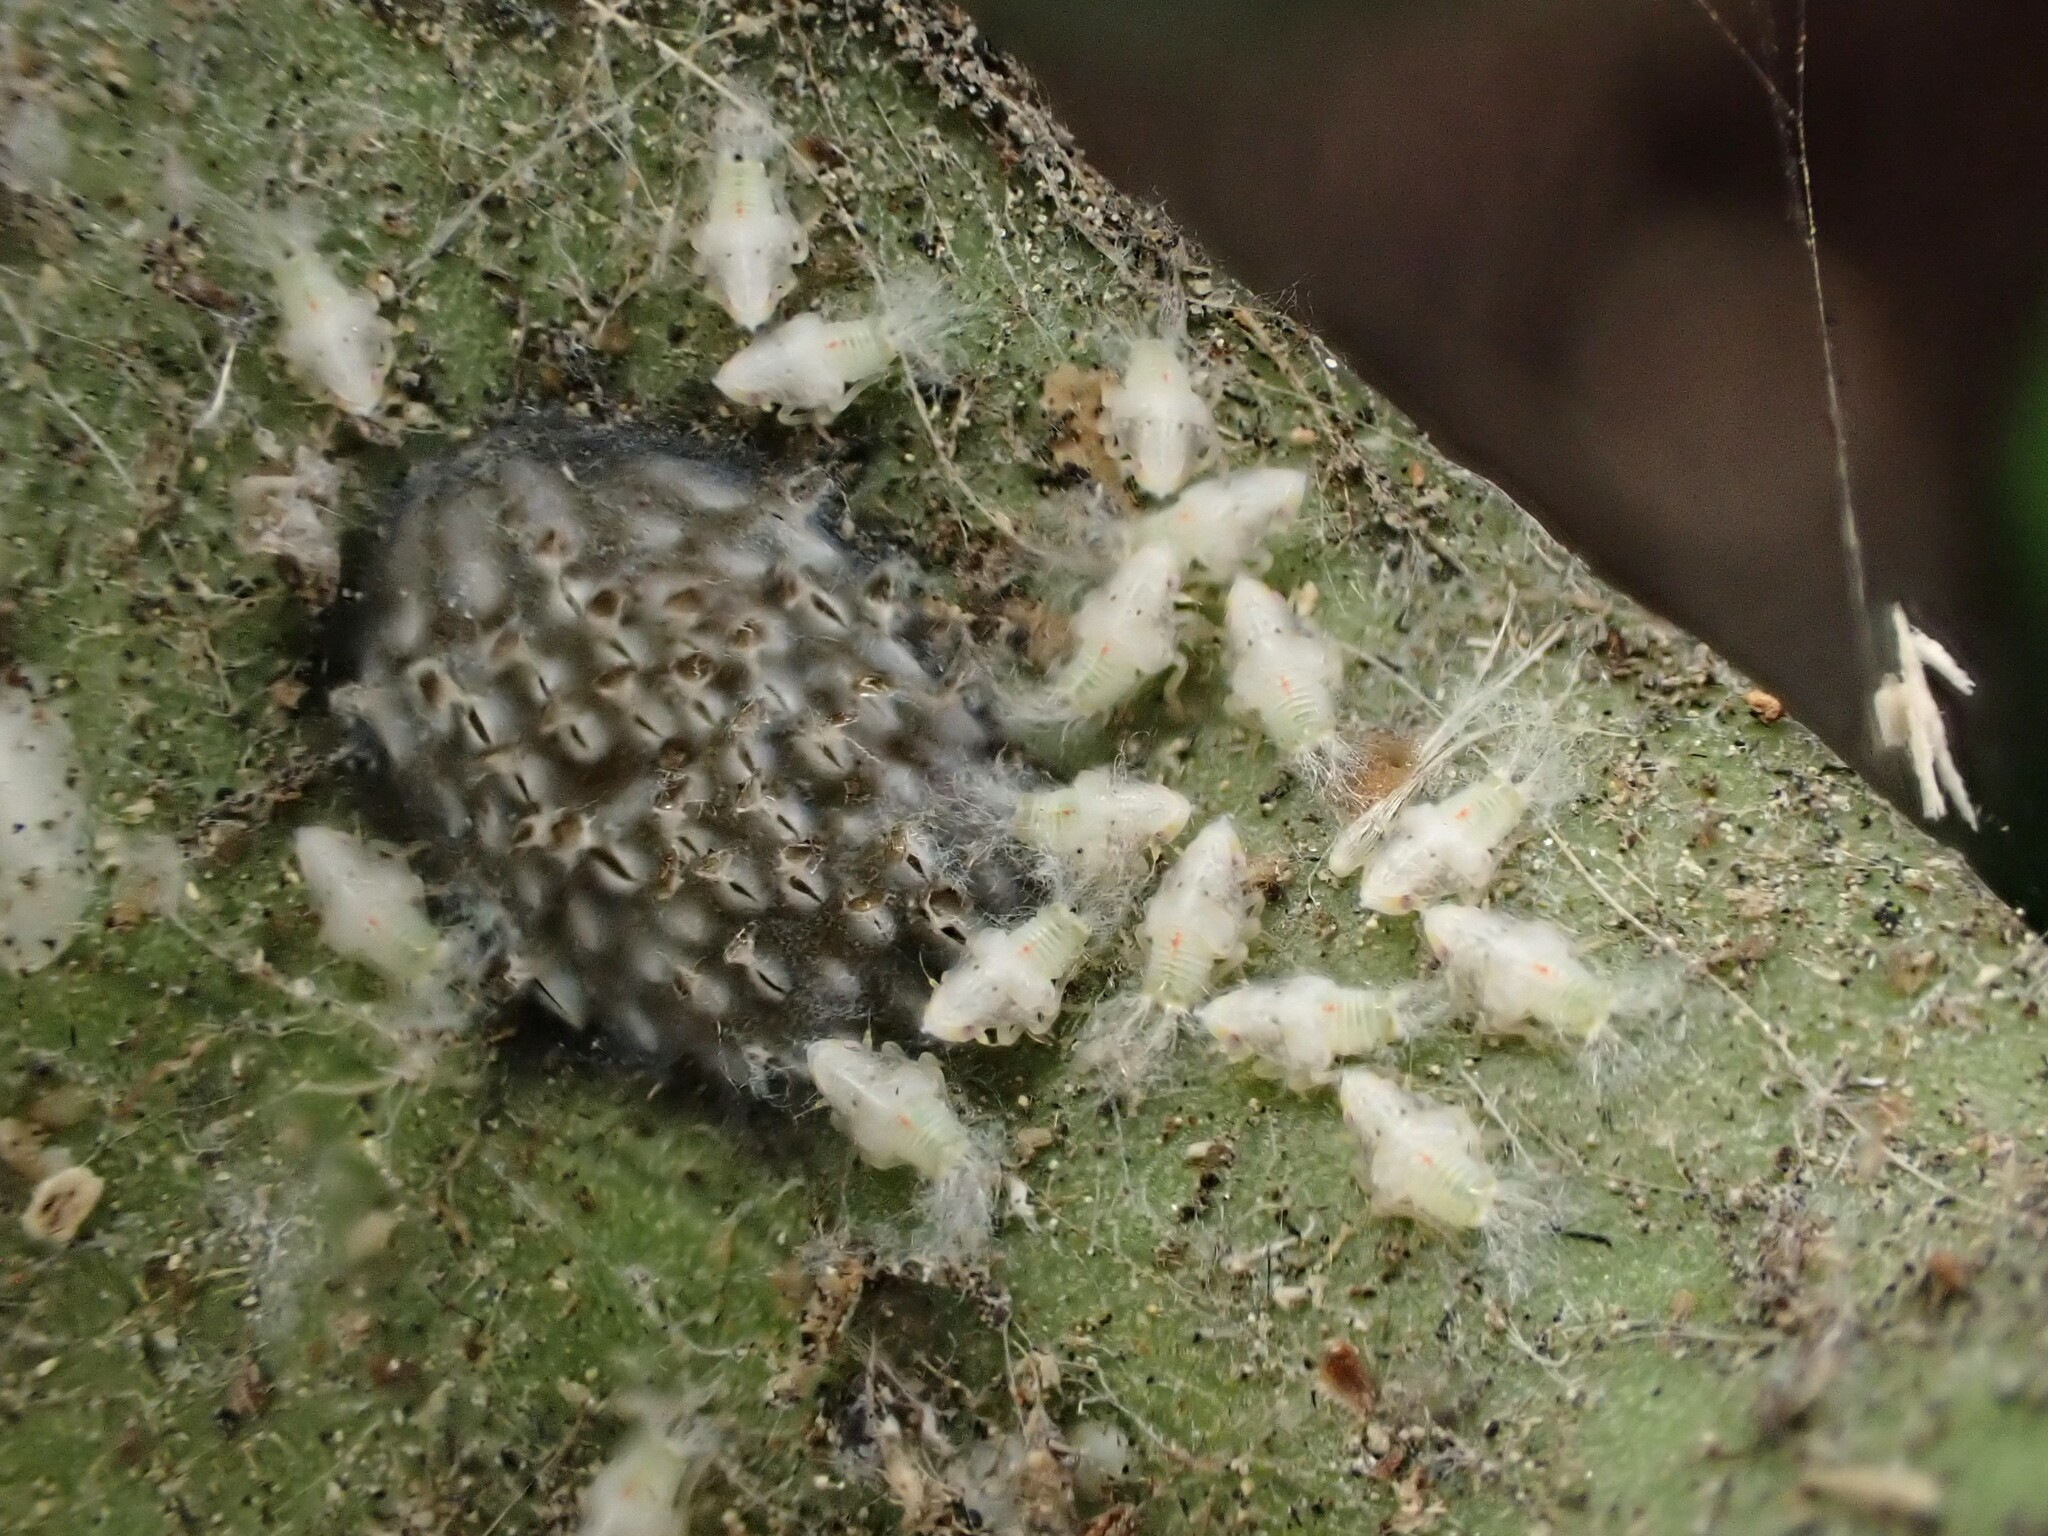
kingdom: Animalia
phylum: Arthropoda
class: Insecta
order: Hemiptera
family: Flatidae
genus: Siphanta
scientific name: Siphanta acuta
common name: Torpedo bug
